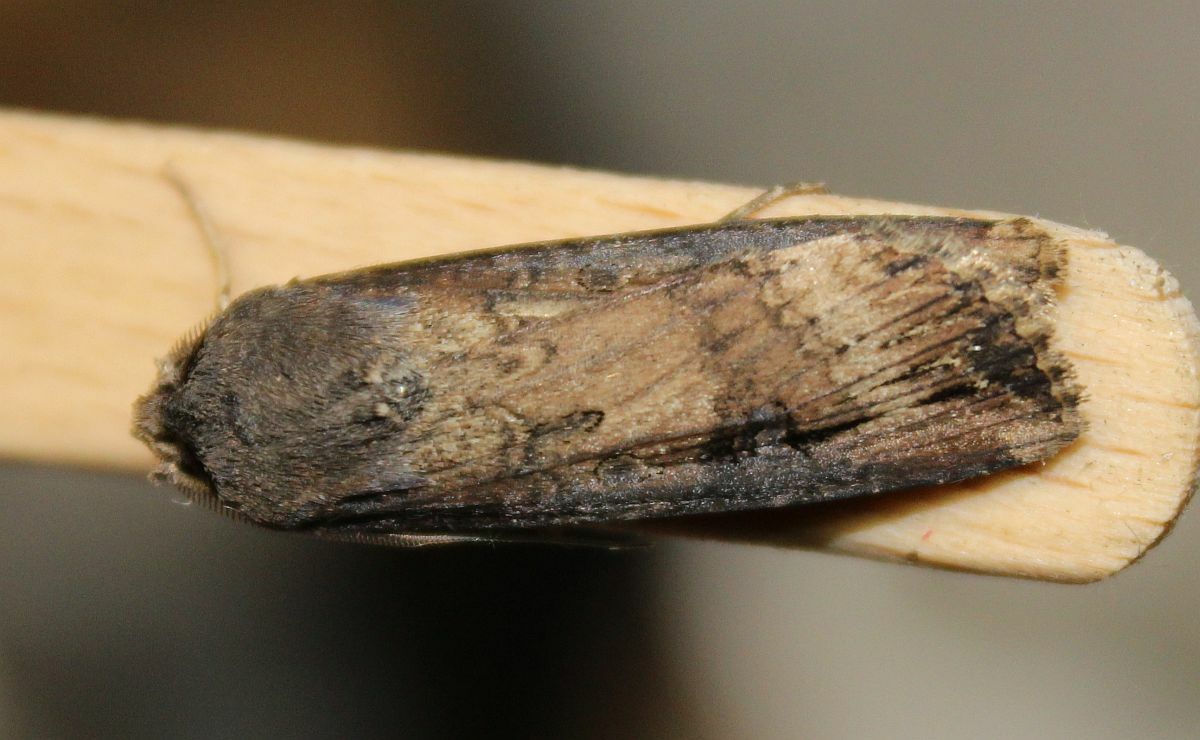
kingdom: Animalia
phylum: Arthropoda
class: Insecta
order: Lepidoptera
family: Noctuidae
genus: Agrotis
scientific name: Agrotis ipsilon
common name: Dark sword-grass
